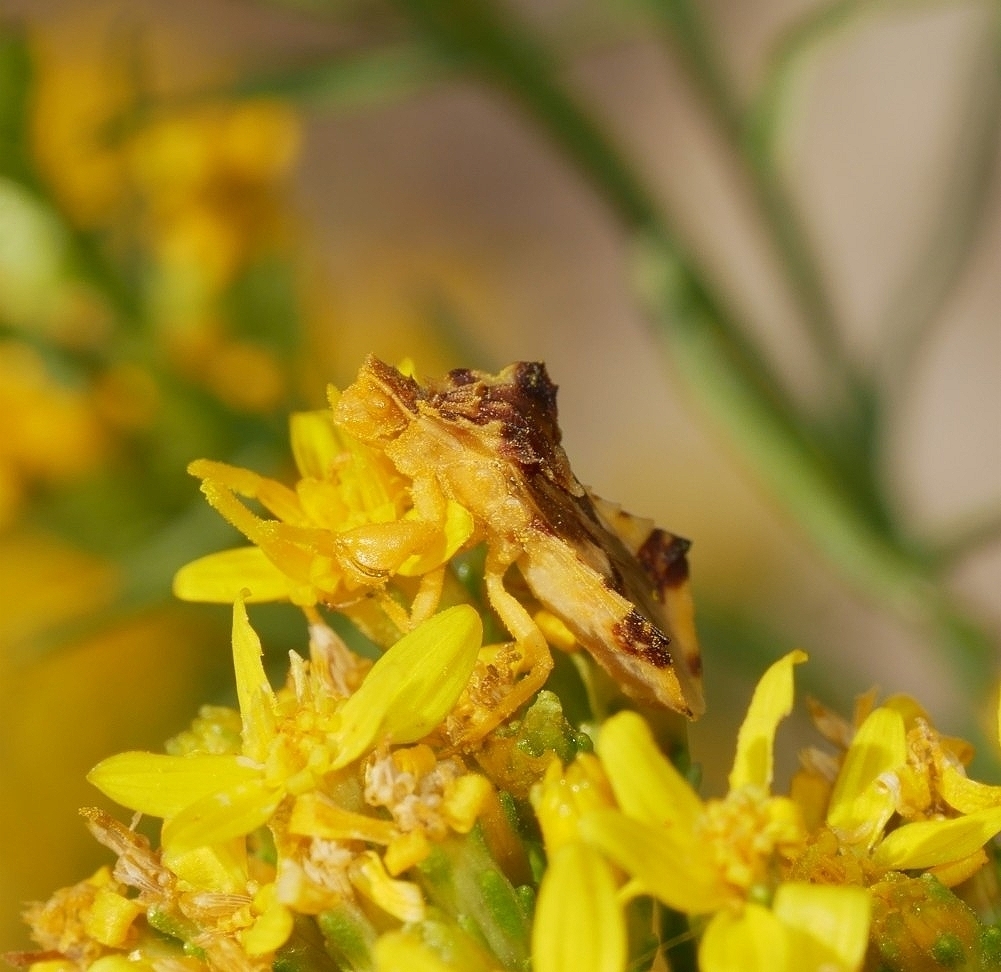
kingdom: Animalia
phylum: Arthropoda
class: Insecta
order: Hemiptera
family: Reduviidae
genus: Phymata
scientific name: Phymata americana
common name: Jagged ambush bug
